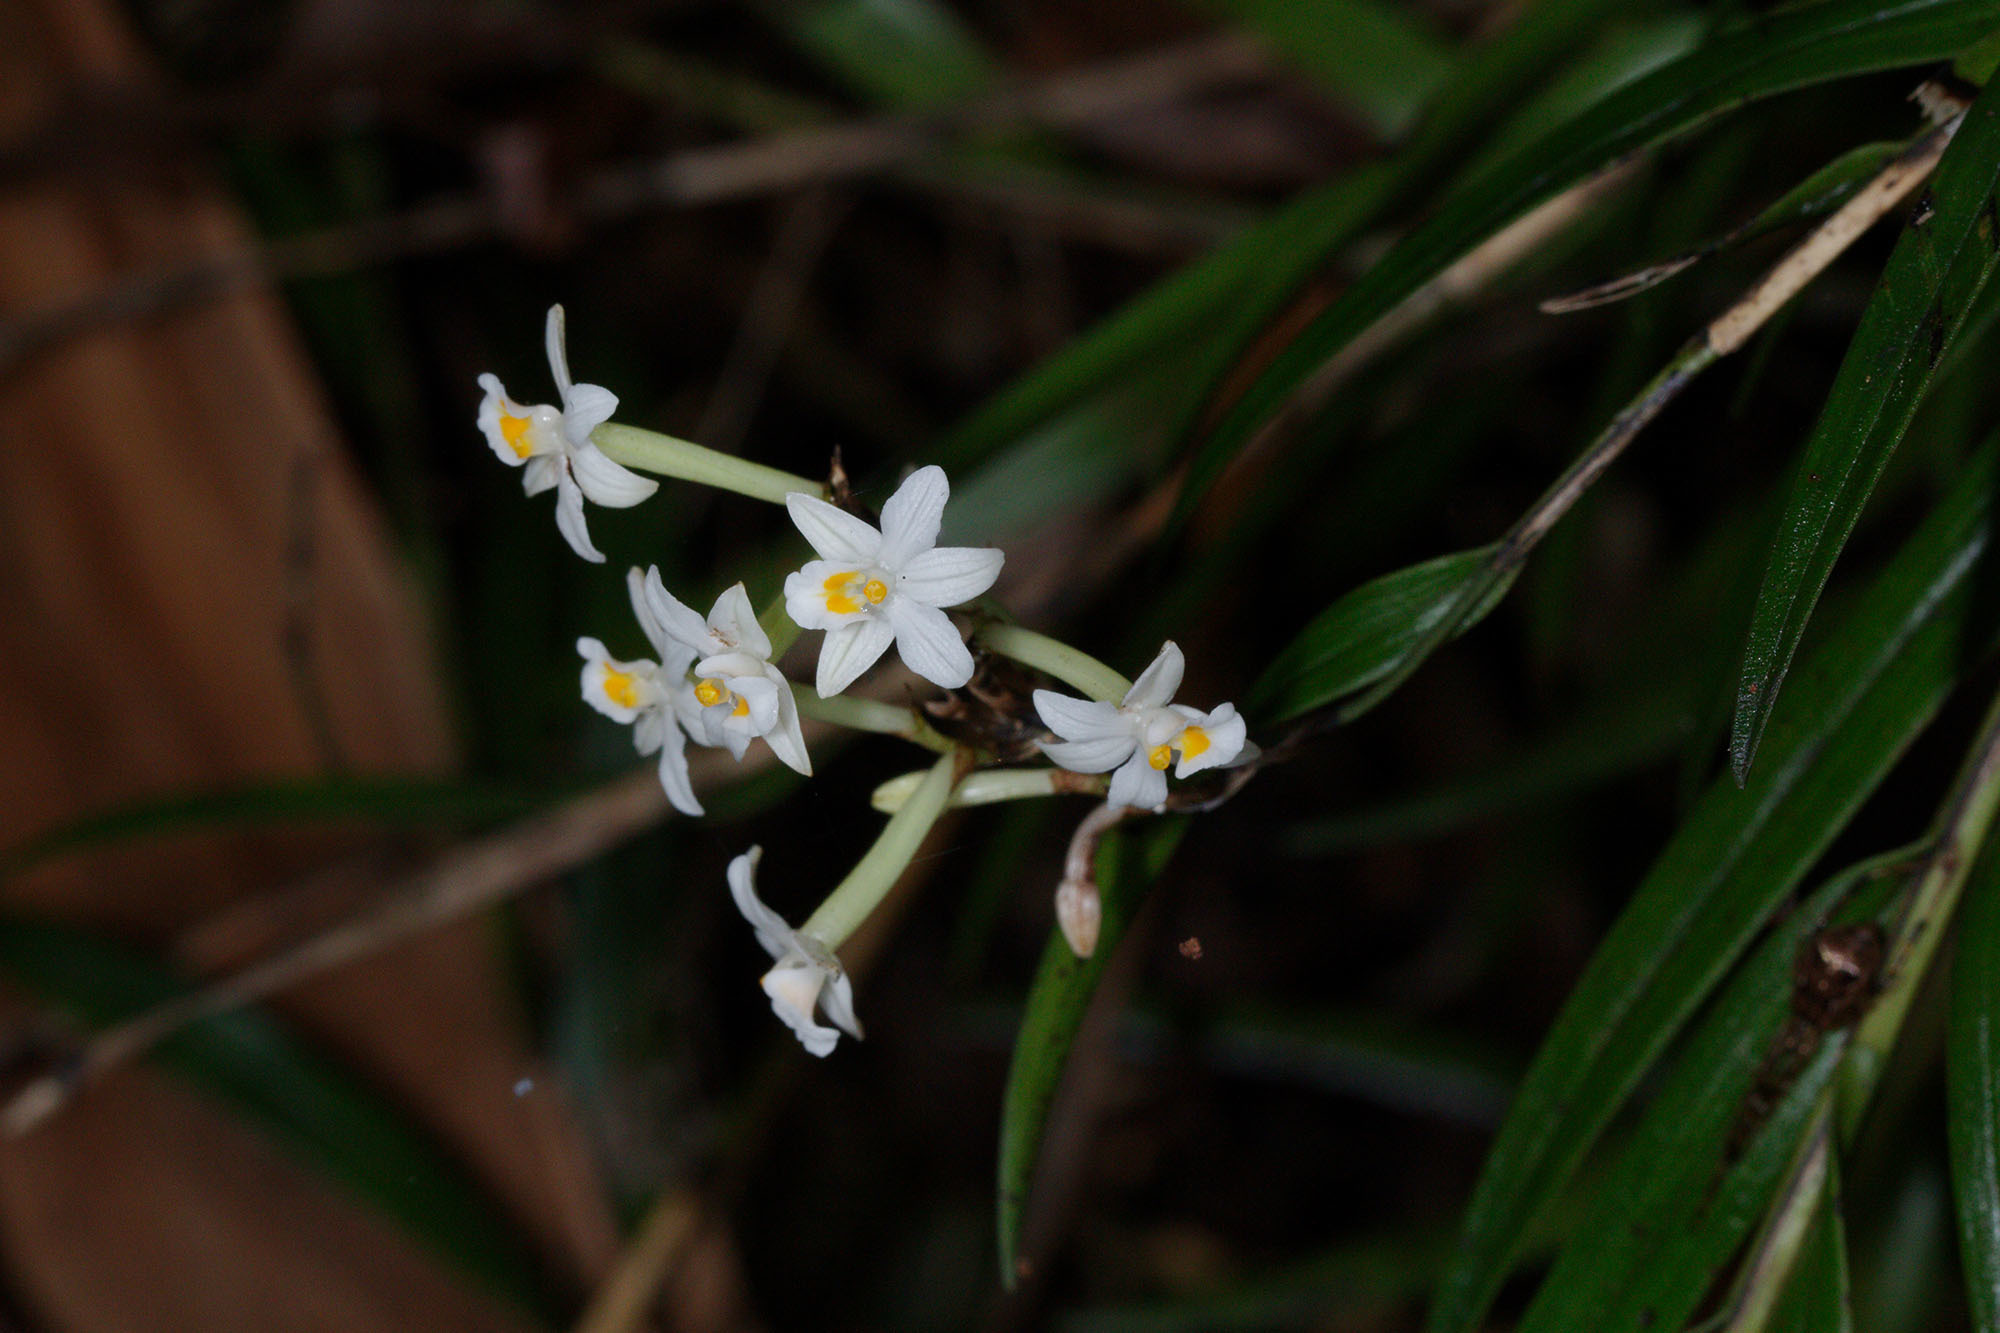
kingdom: Plantae
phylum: Tracheophyta
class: Liliopsida
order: Asparagales
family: Orchidaceae
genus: Earina
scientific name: Earina autumnalis
